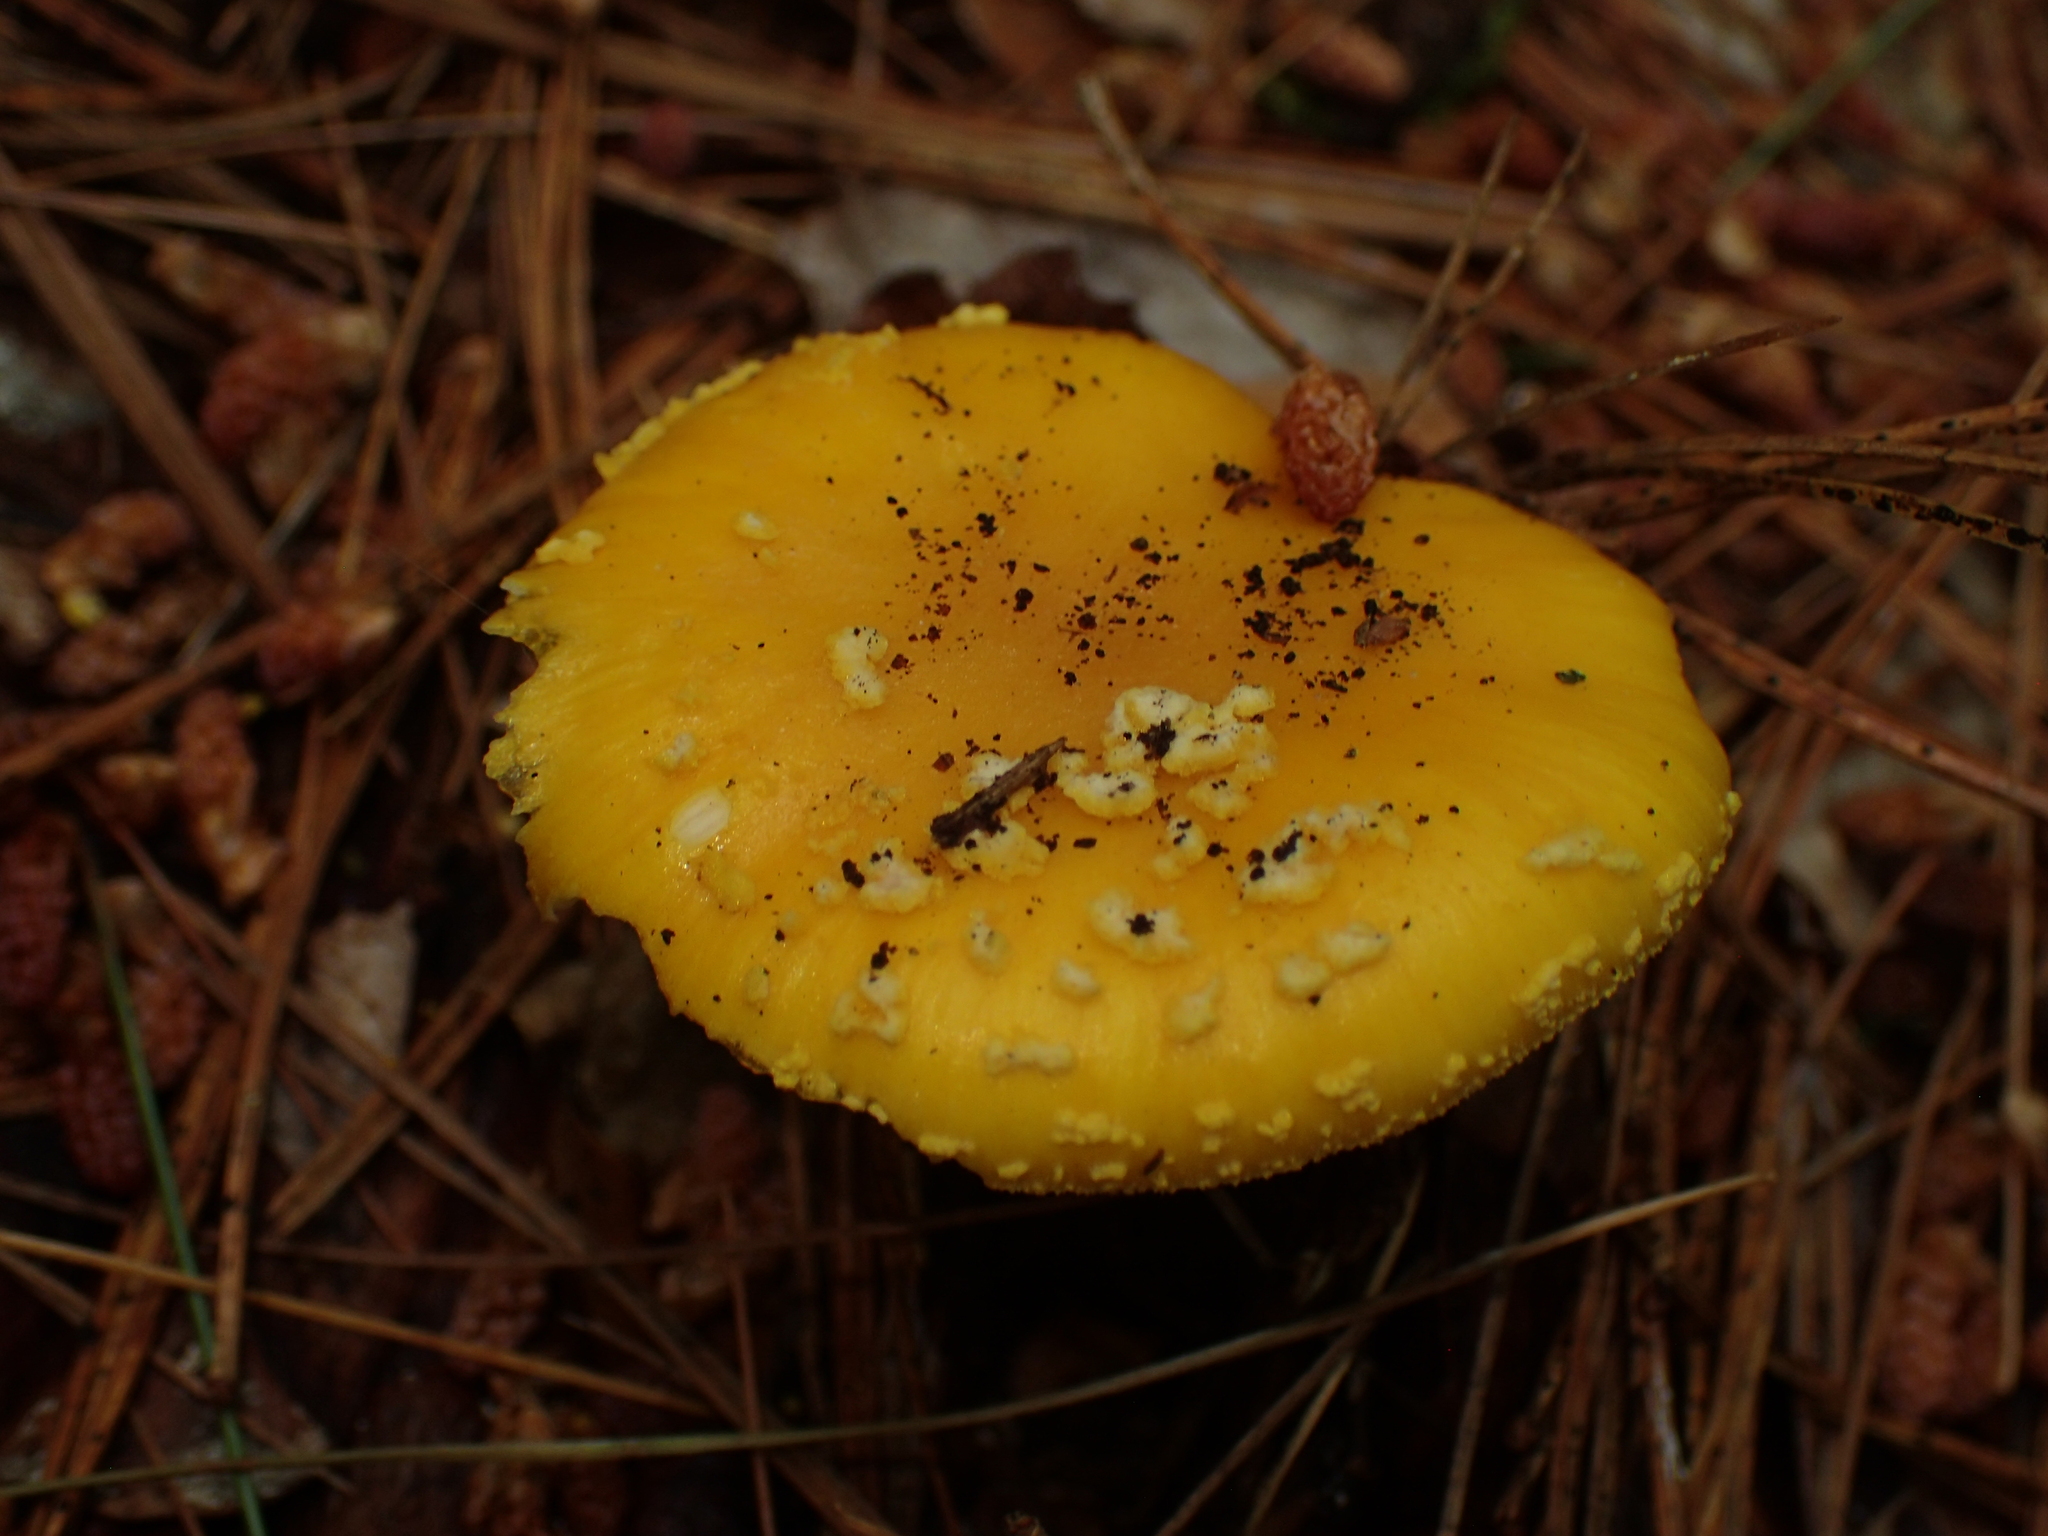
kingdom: Fungi
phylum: Basidiomycota
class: Agaricomycetes
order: Agaricales
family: Amanitaceae
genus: Amanita
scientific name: Amanita flavoconia
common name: Yellow patches
